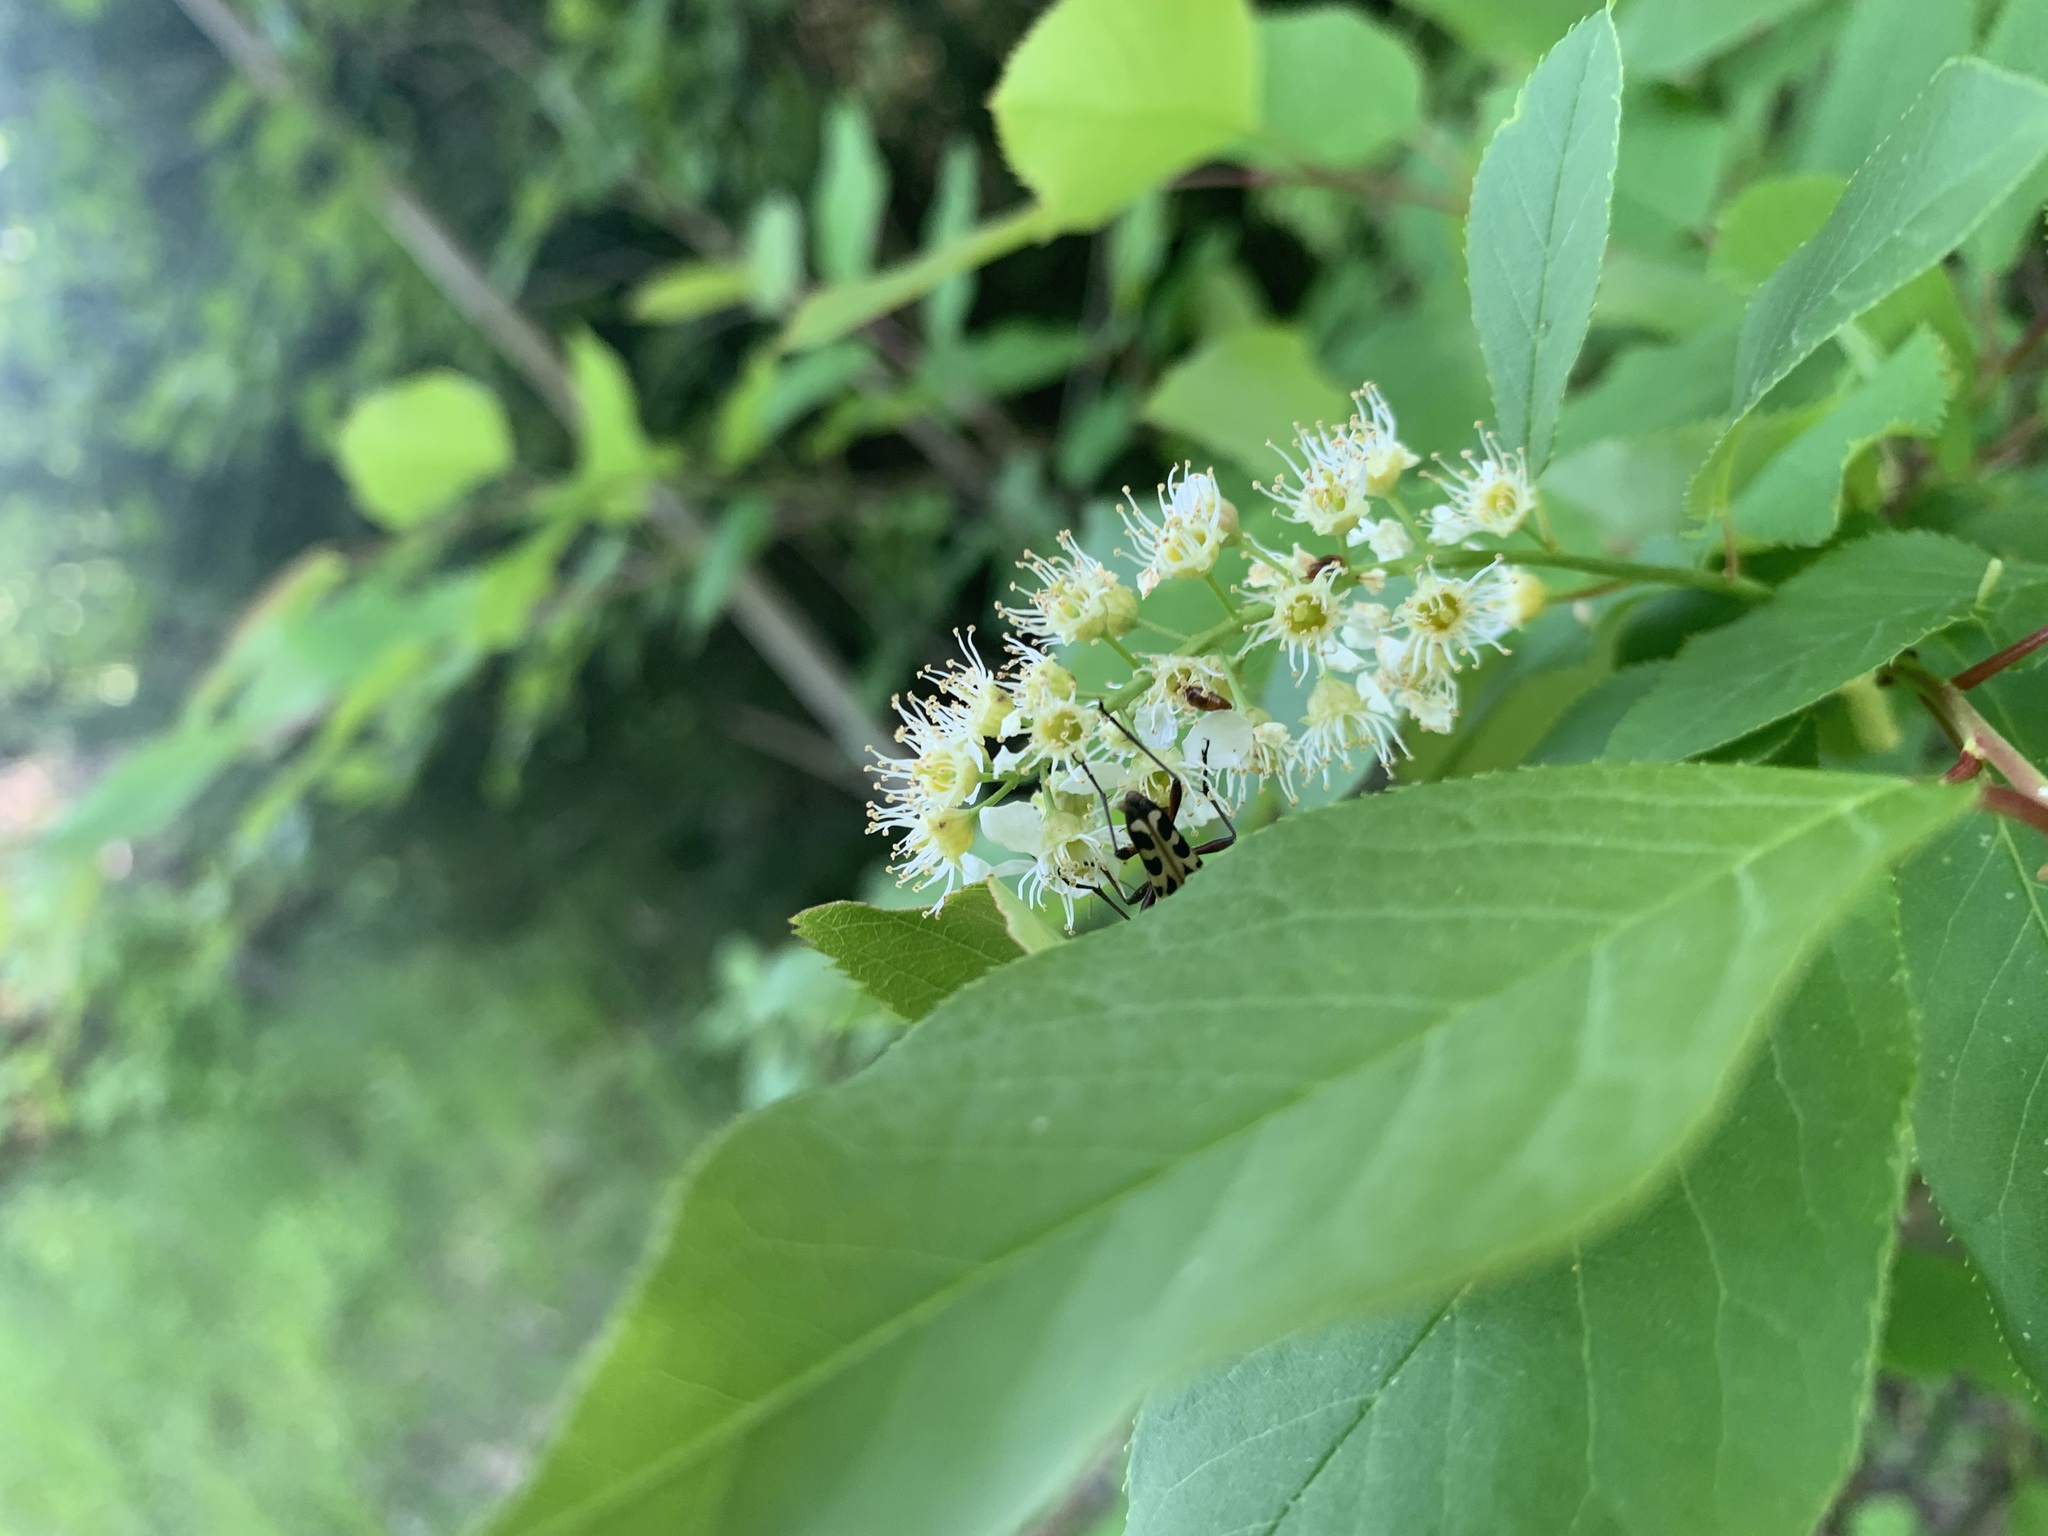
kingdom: Plantae
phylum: Tracheophyta
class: Magnoliopsida
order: Rosales
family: Rosaceae
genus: Prunus
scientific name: Prunus virginiana
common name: Chokecherry
